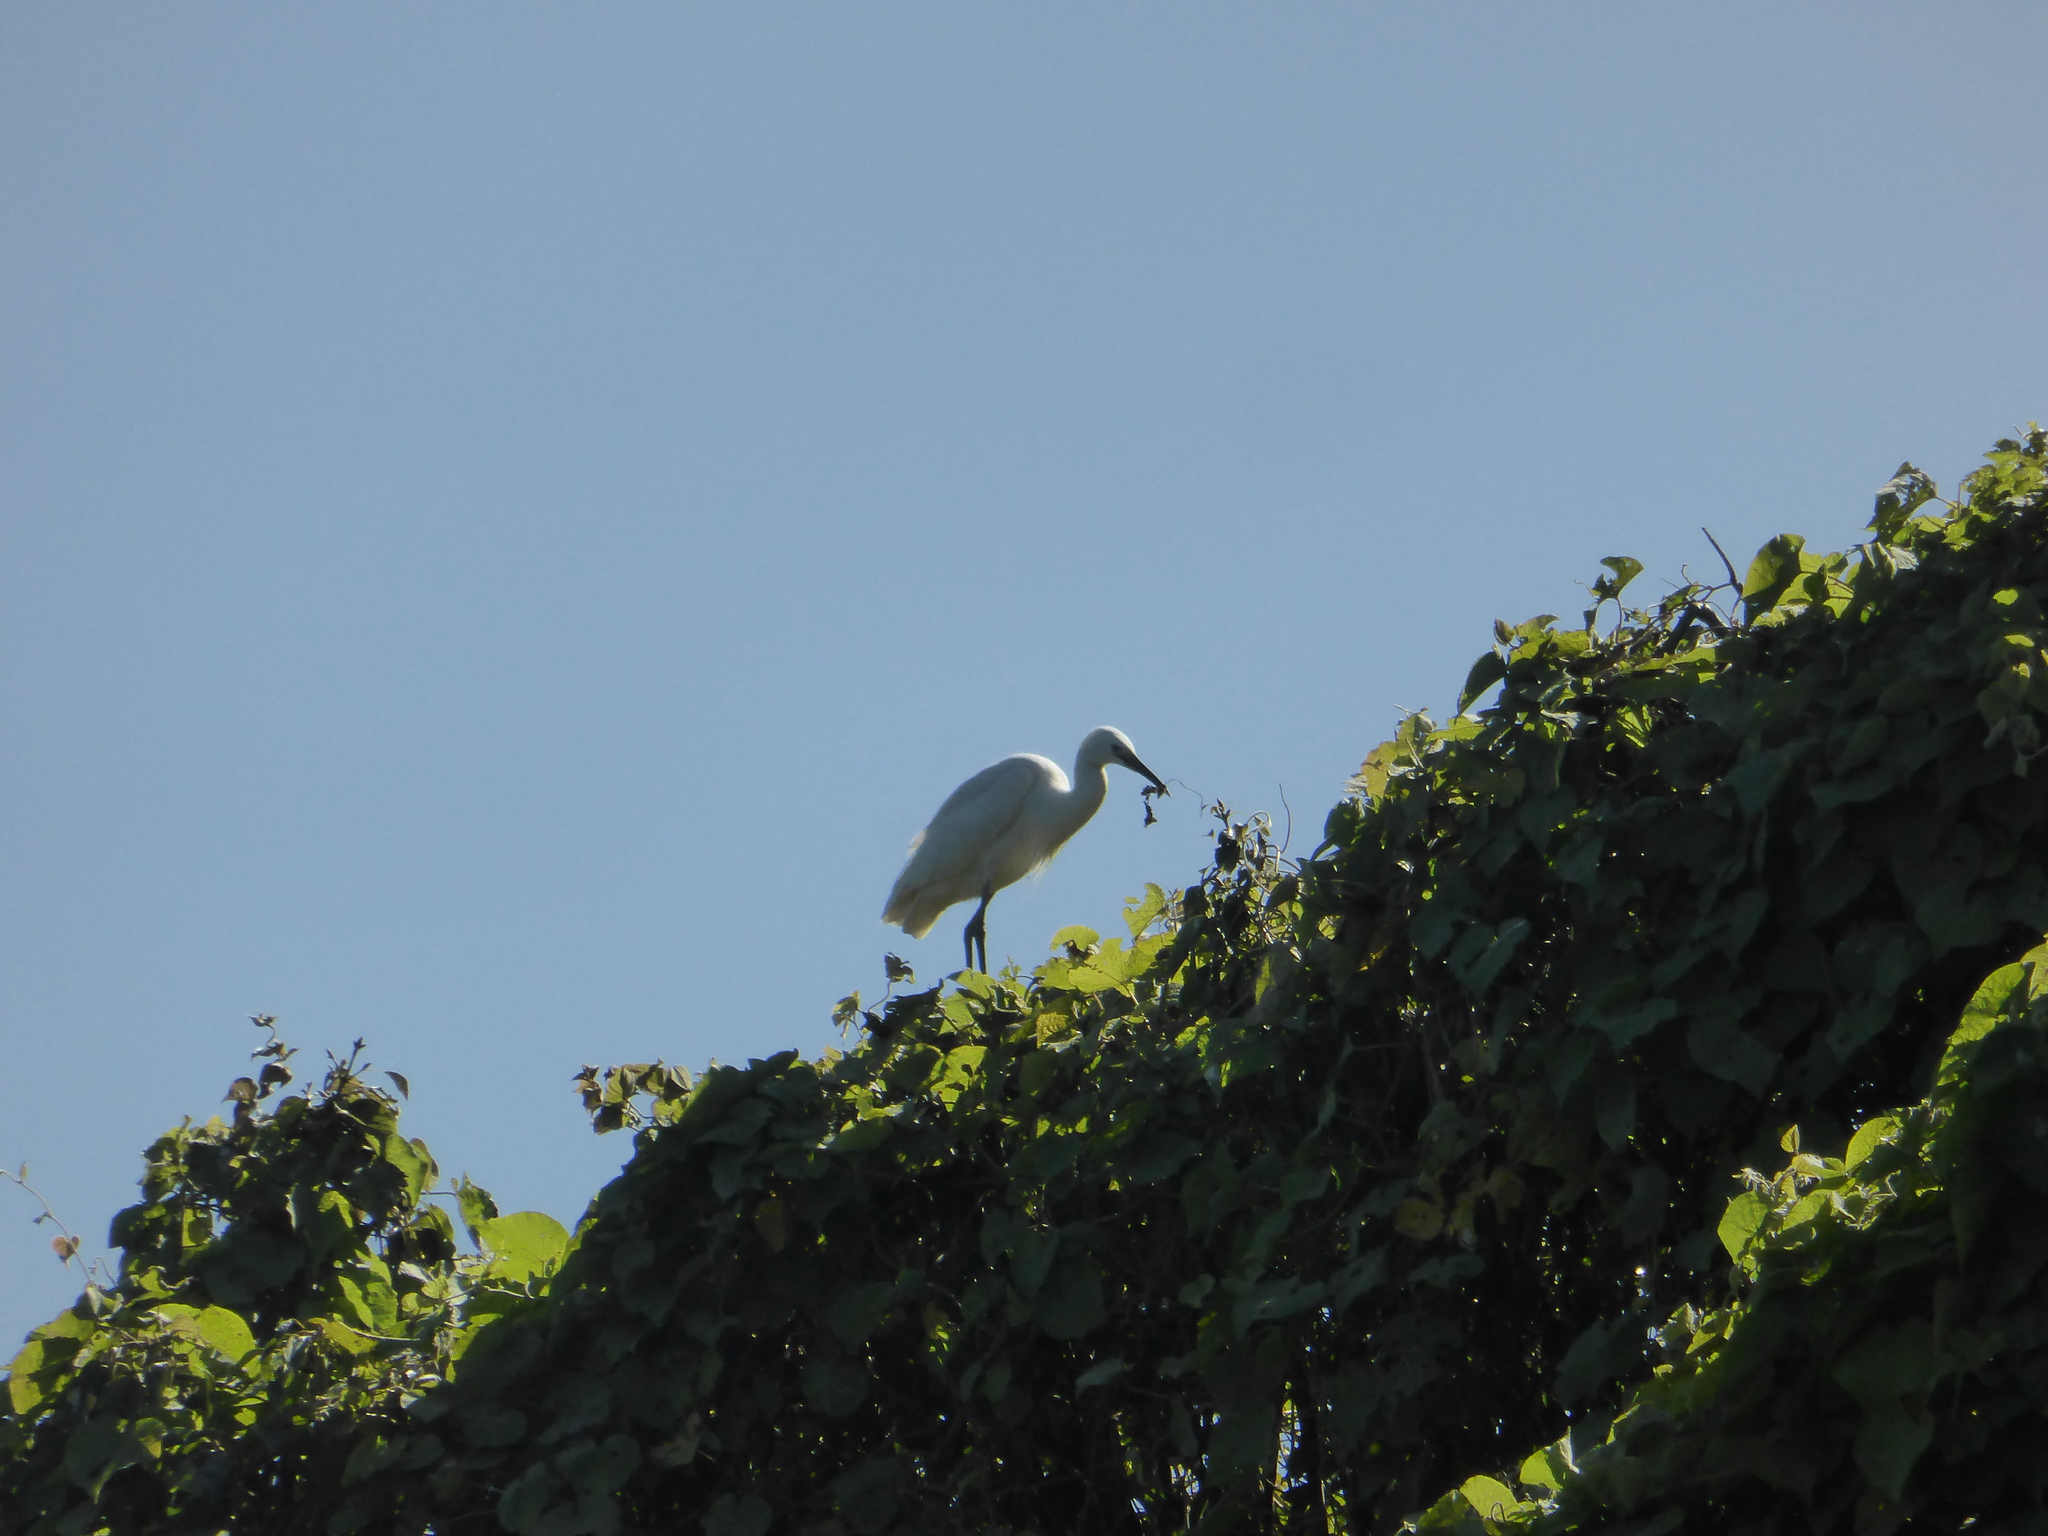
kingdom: Animalia
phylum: Chordata
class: Aves
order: Pelecaniformes
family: Ardeidae
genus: Ardea
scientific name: Ardea alba
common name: Great egret
